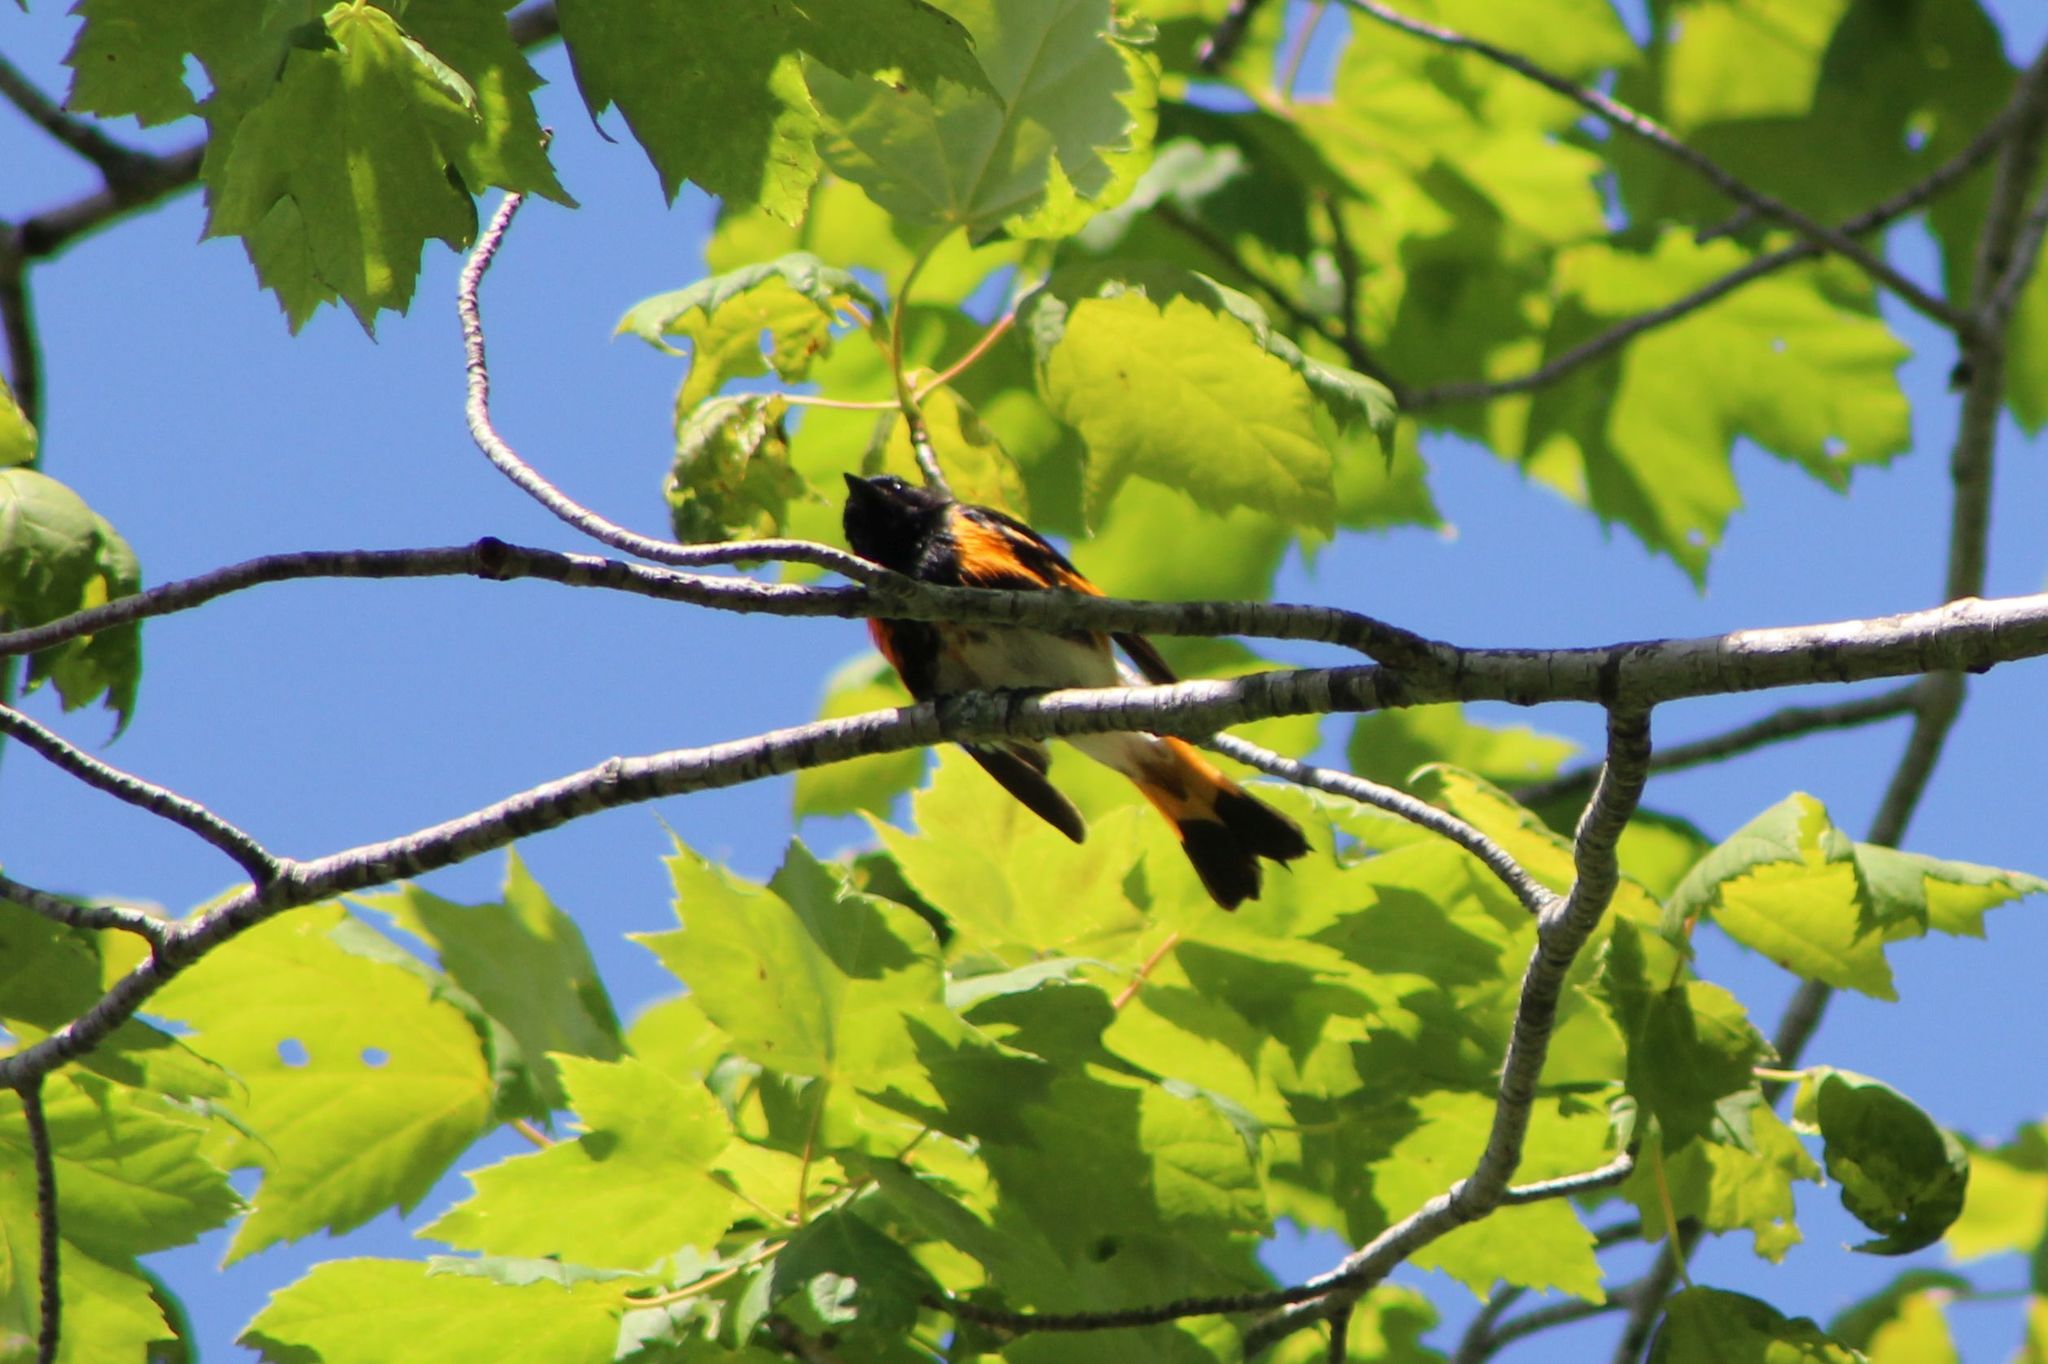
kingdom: Animalia
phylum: Chordata
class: Aves
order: Passeriformes
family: Parulidae
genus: Setophaga
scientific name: Setophaga ruticilla
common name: American redstart
